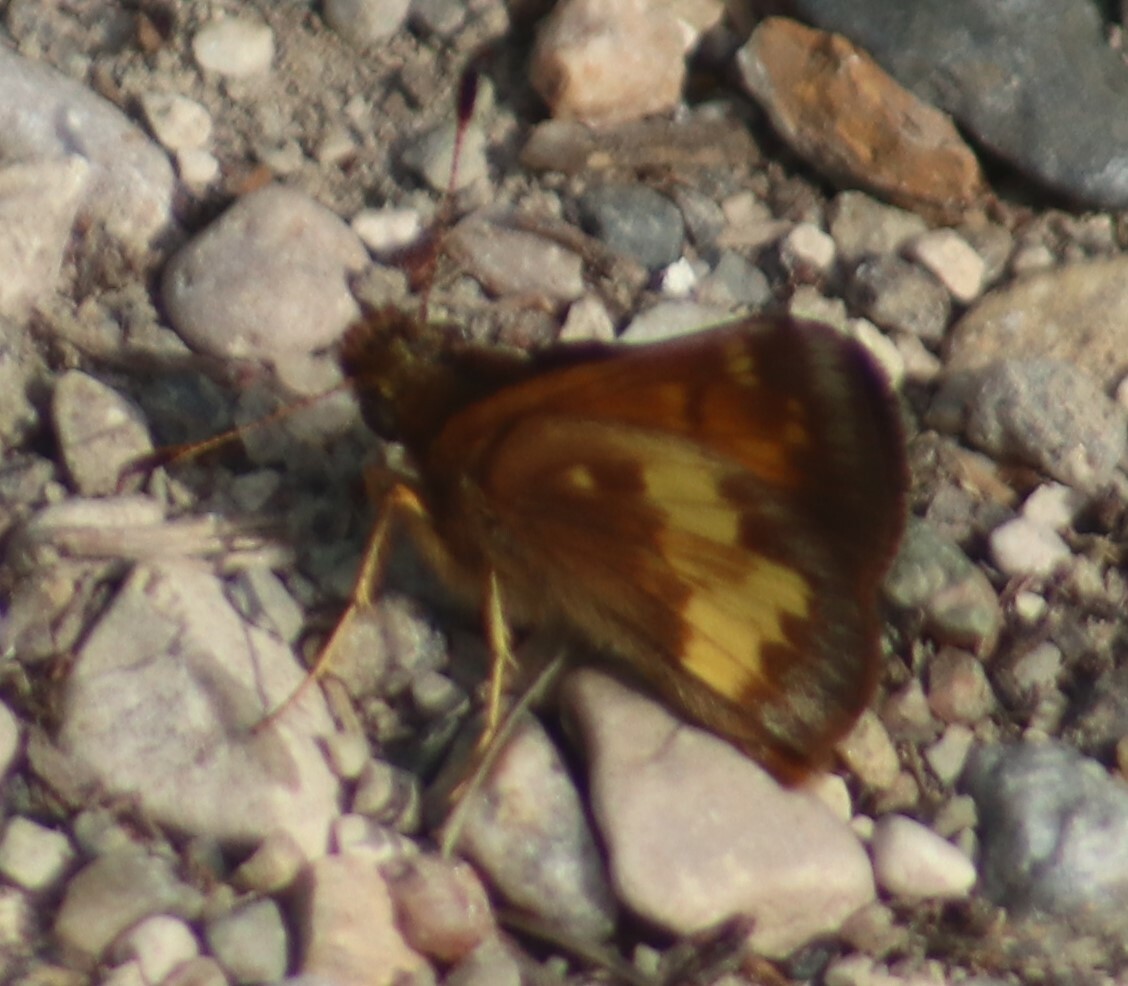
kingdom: Animalia
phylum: Arthropoda
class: Insecta
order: Lepidoptera
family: Hesperiidae
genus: Lon
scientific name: Lon hobomok
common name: Hobomok skipper
